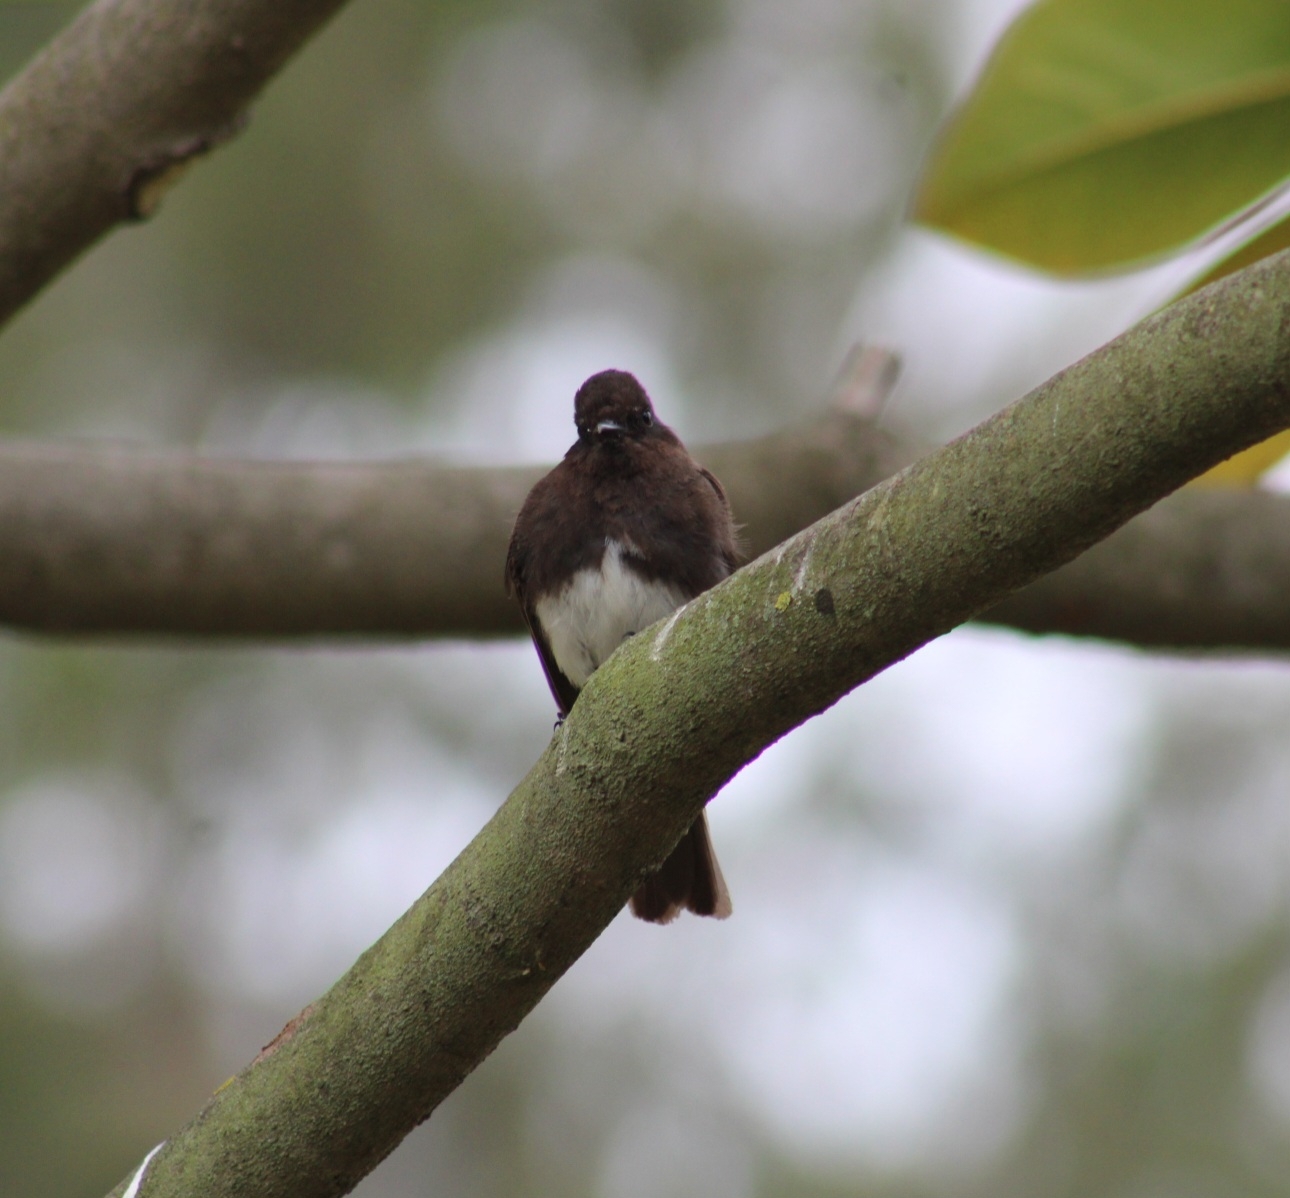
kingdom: Animalia
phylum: Chordata
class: Aves
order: Passeriformes
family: Tyrannidae
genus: Sayornis
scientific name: Sayornis nigricans
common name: Black phoebe
